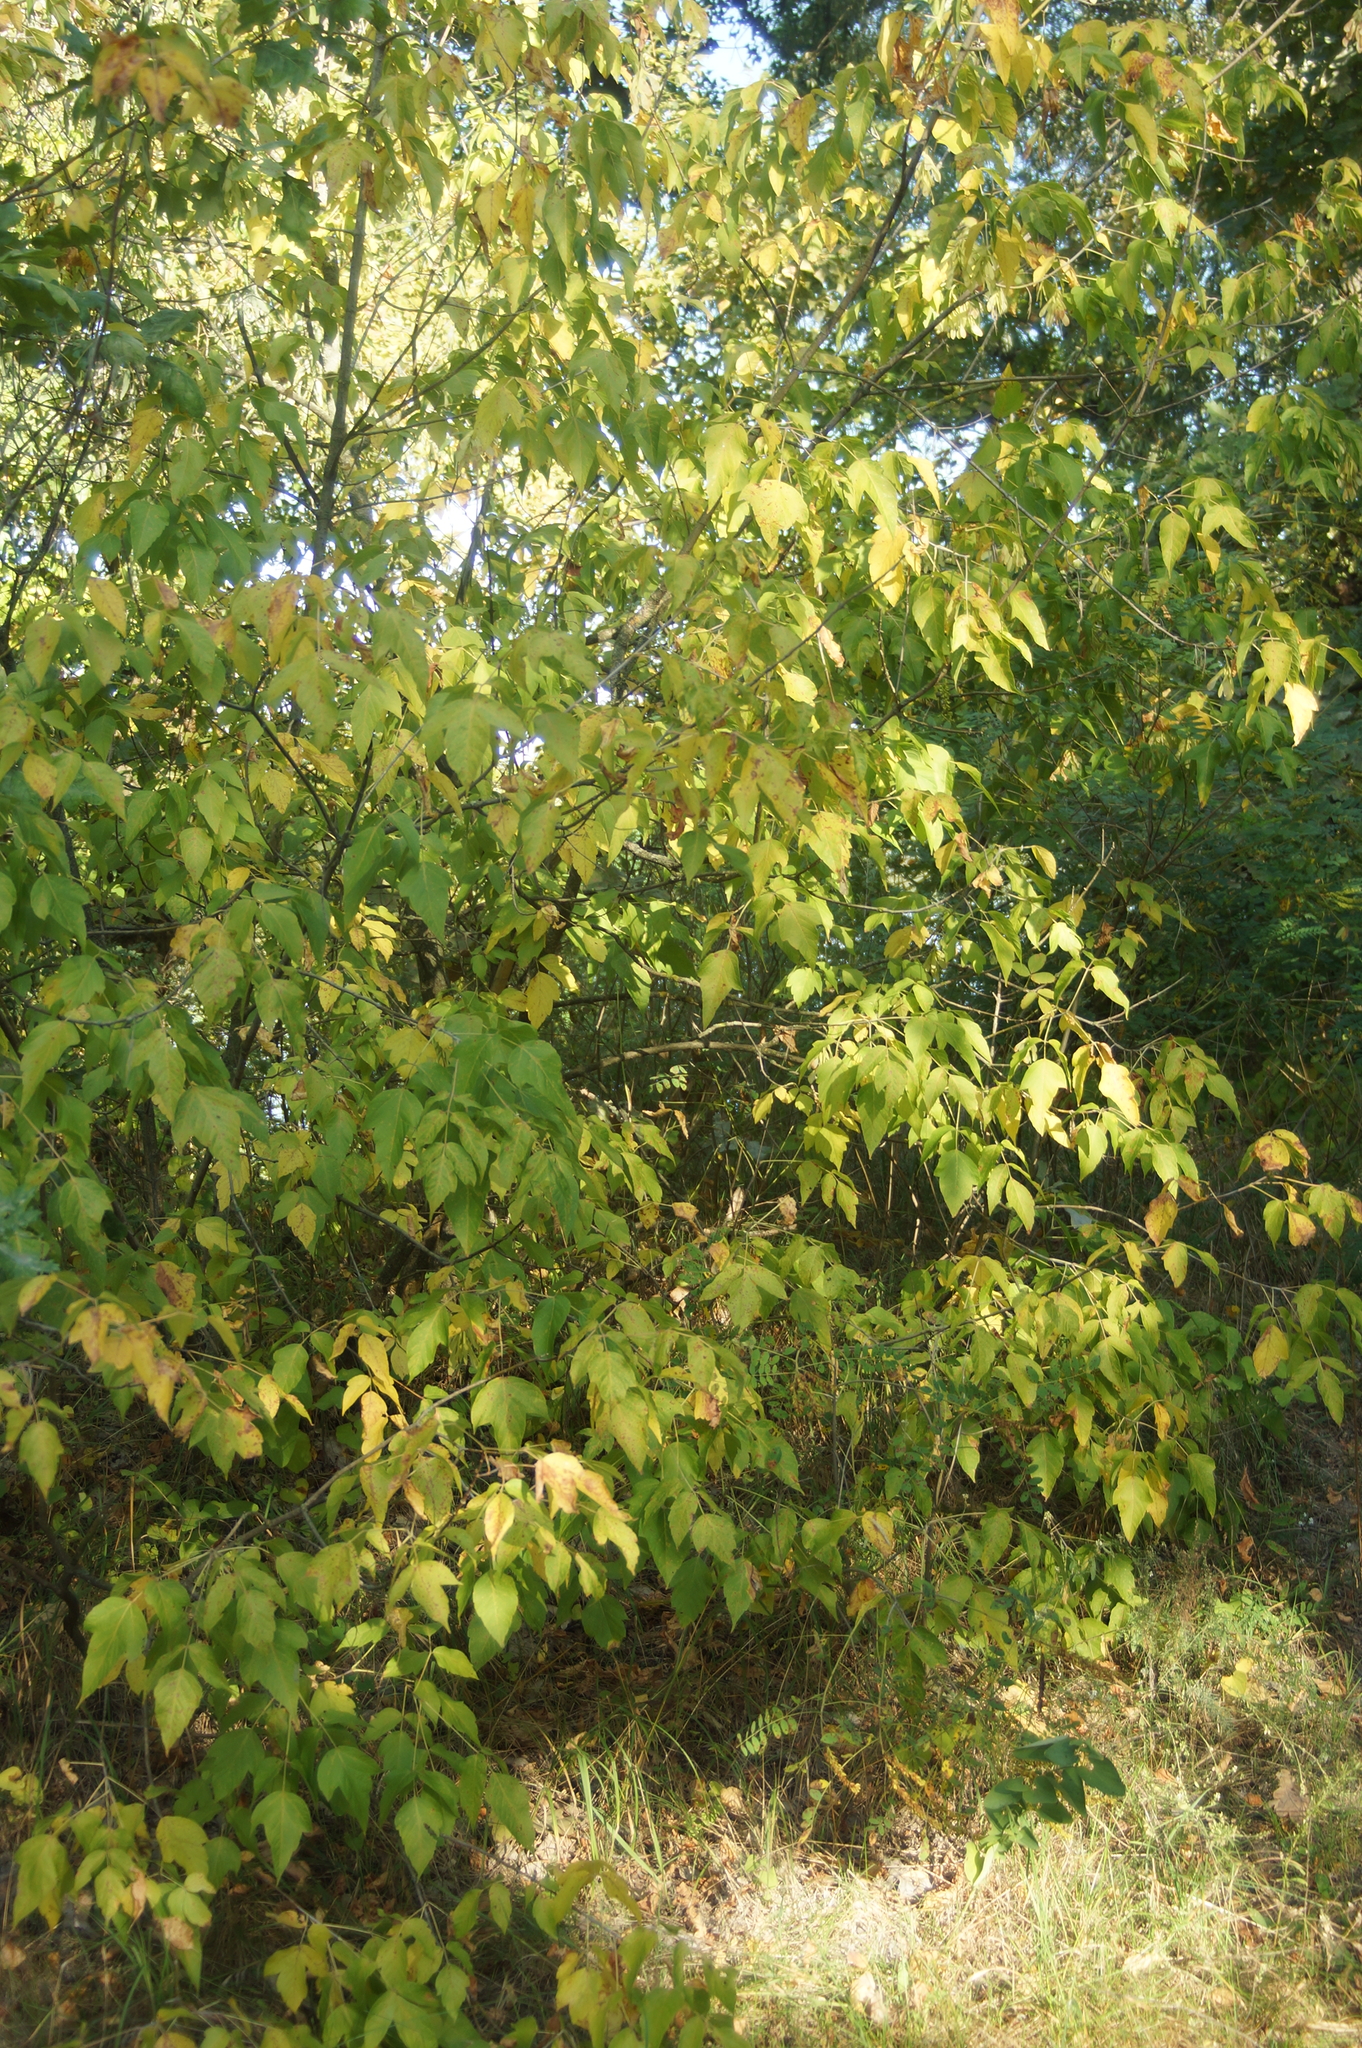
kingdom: Plantae
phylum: Tracheophyta
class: Magnoliopsida
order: Sapindales
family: Sapindaceae
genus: Acer
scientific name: Acer negundo
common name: Ashleaf maple
